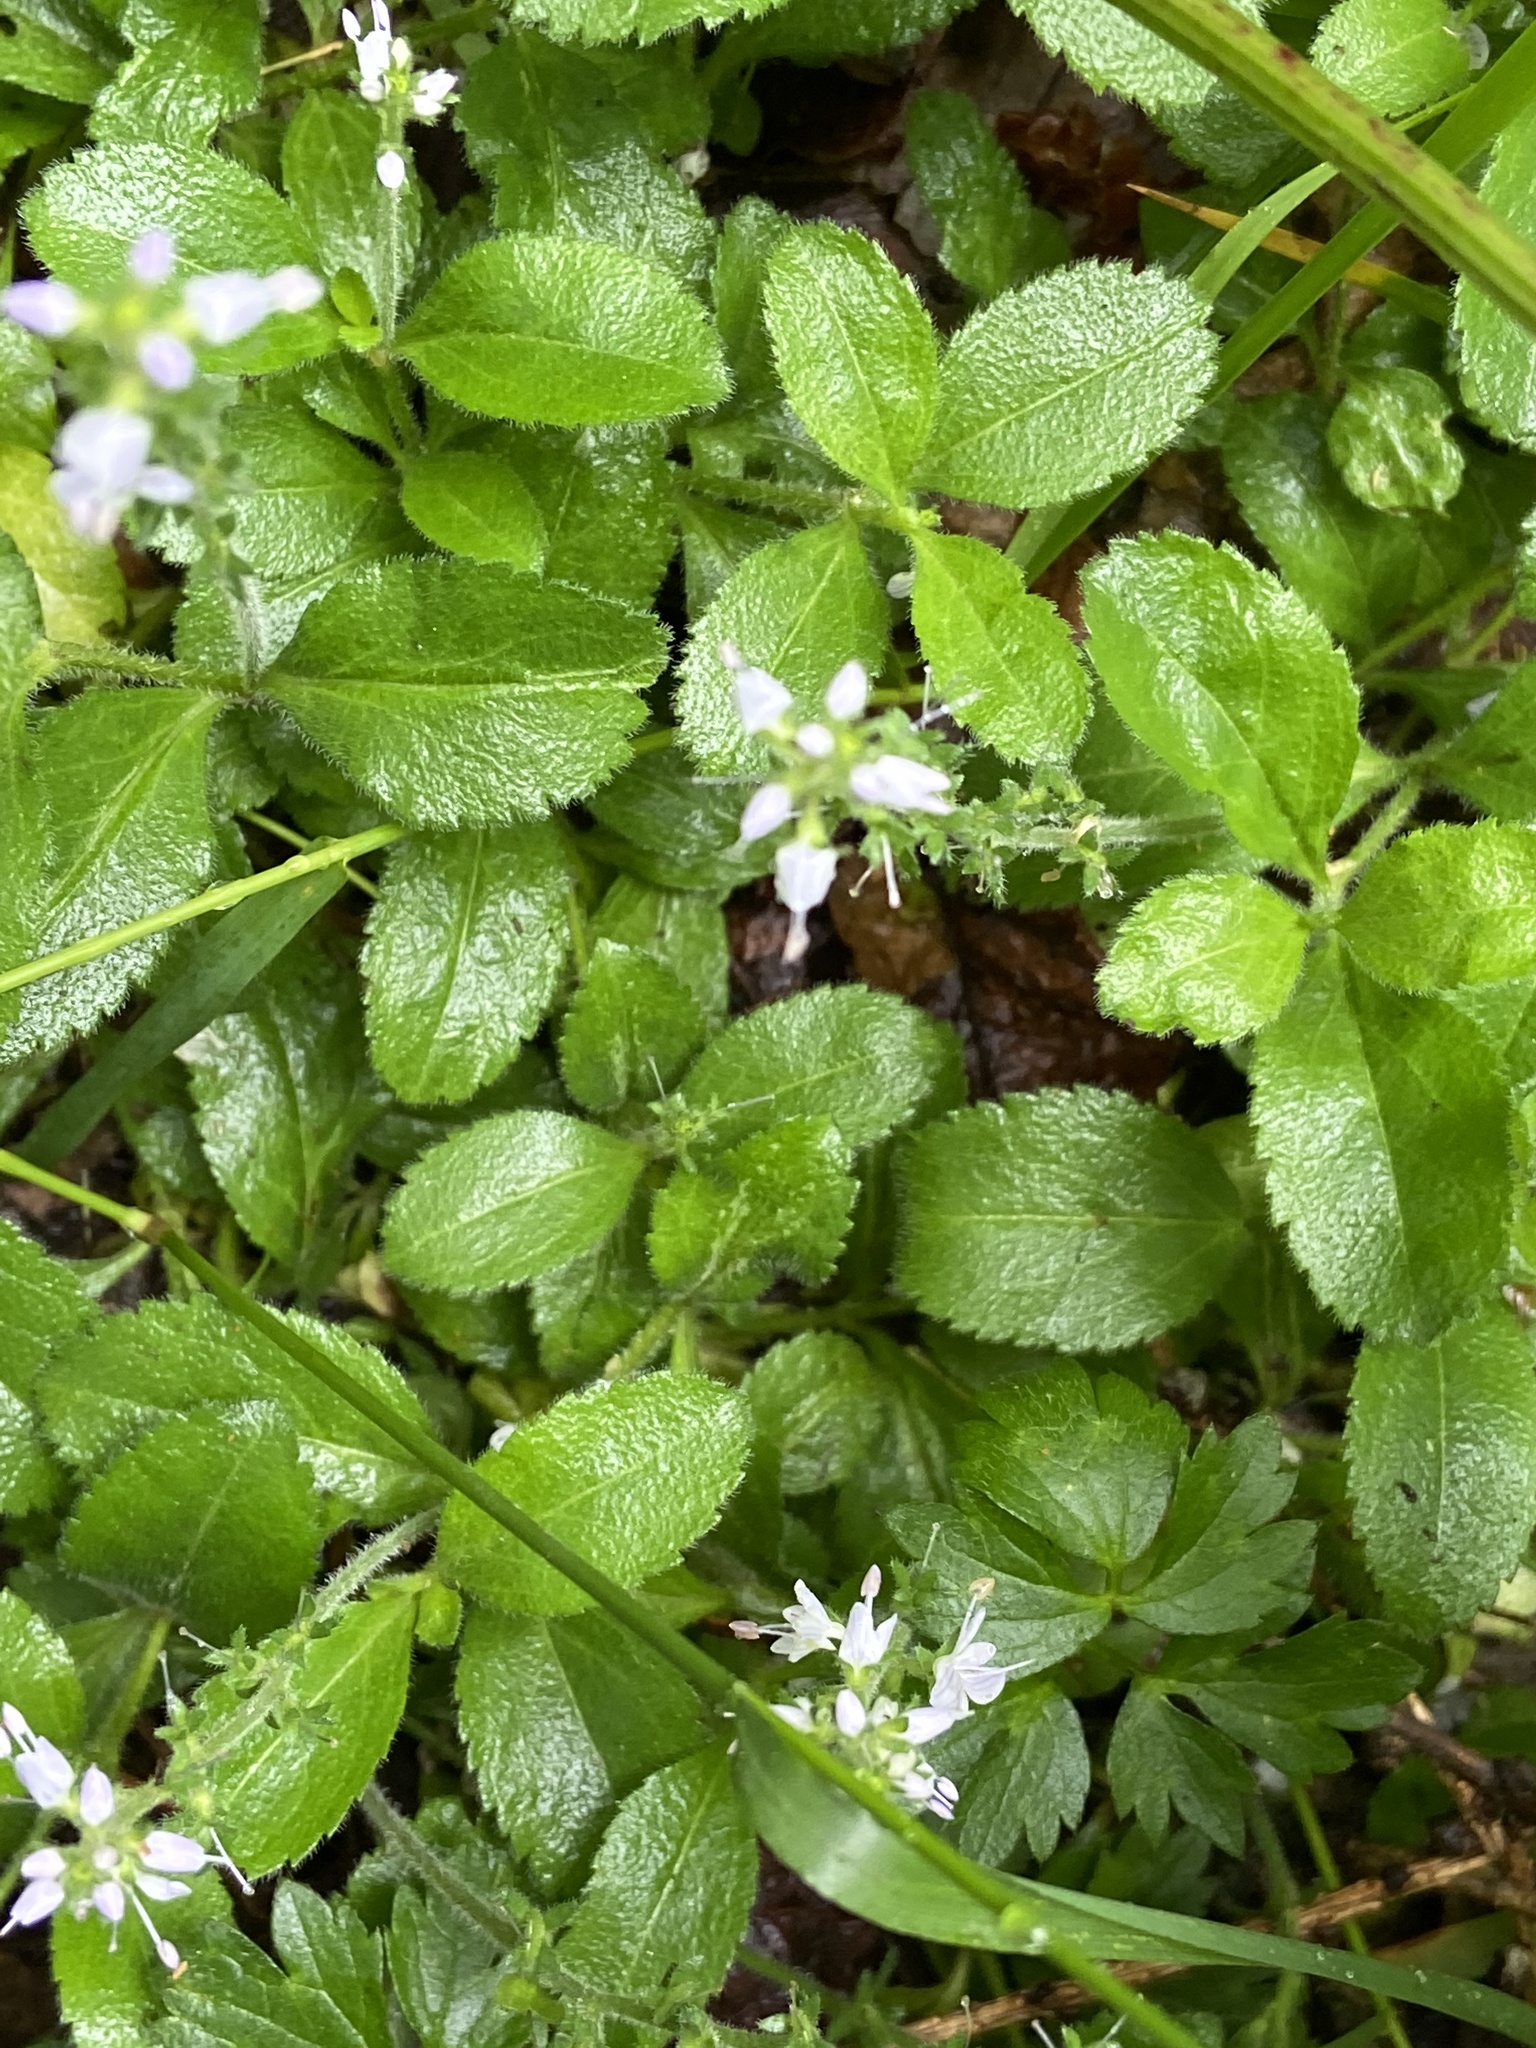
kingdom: Plantae
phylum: Tracheophyta
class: Magnoliopsida
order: Lamiales
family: Plantaginaceae
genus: Veronica
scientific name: Veronica officinalis
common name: Common speedwell
